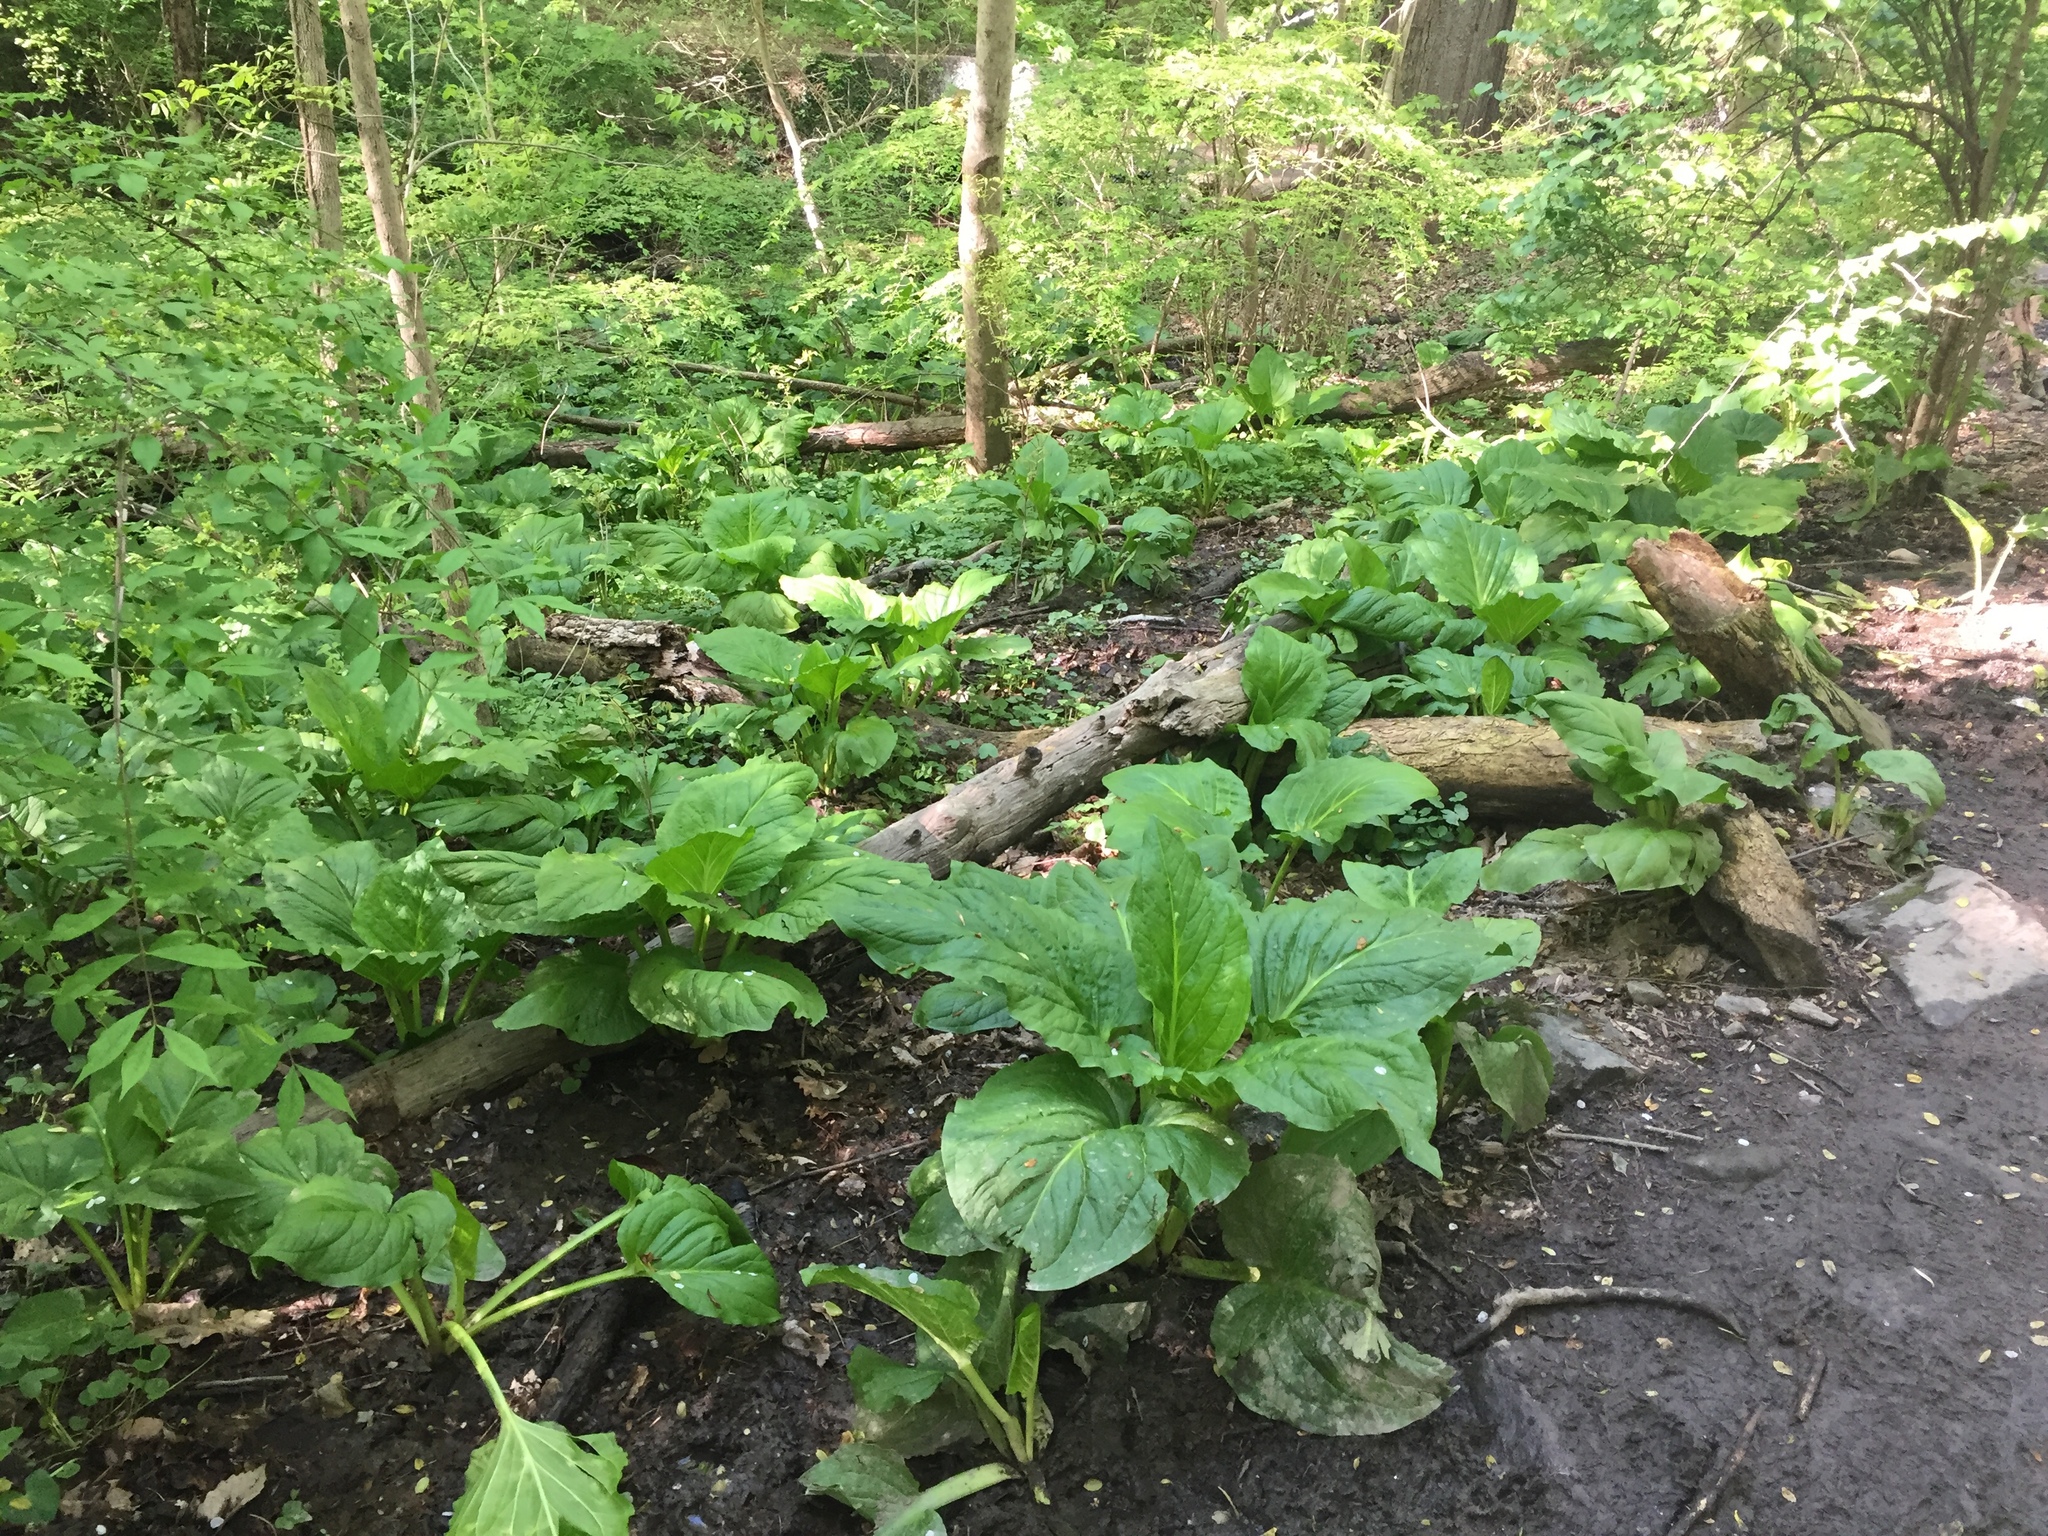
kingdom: Plantae
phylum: Tracheophyta
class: Liliopsida
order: Alismatales
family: Araceae
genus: Symplocarpus
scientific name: Symplocarpus foetidus
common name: Eastern skunk cabbage
